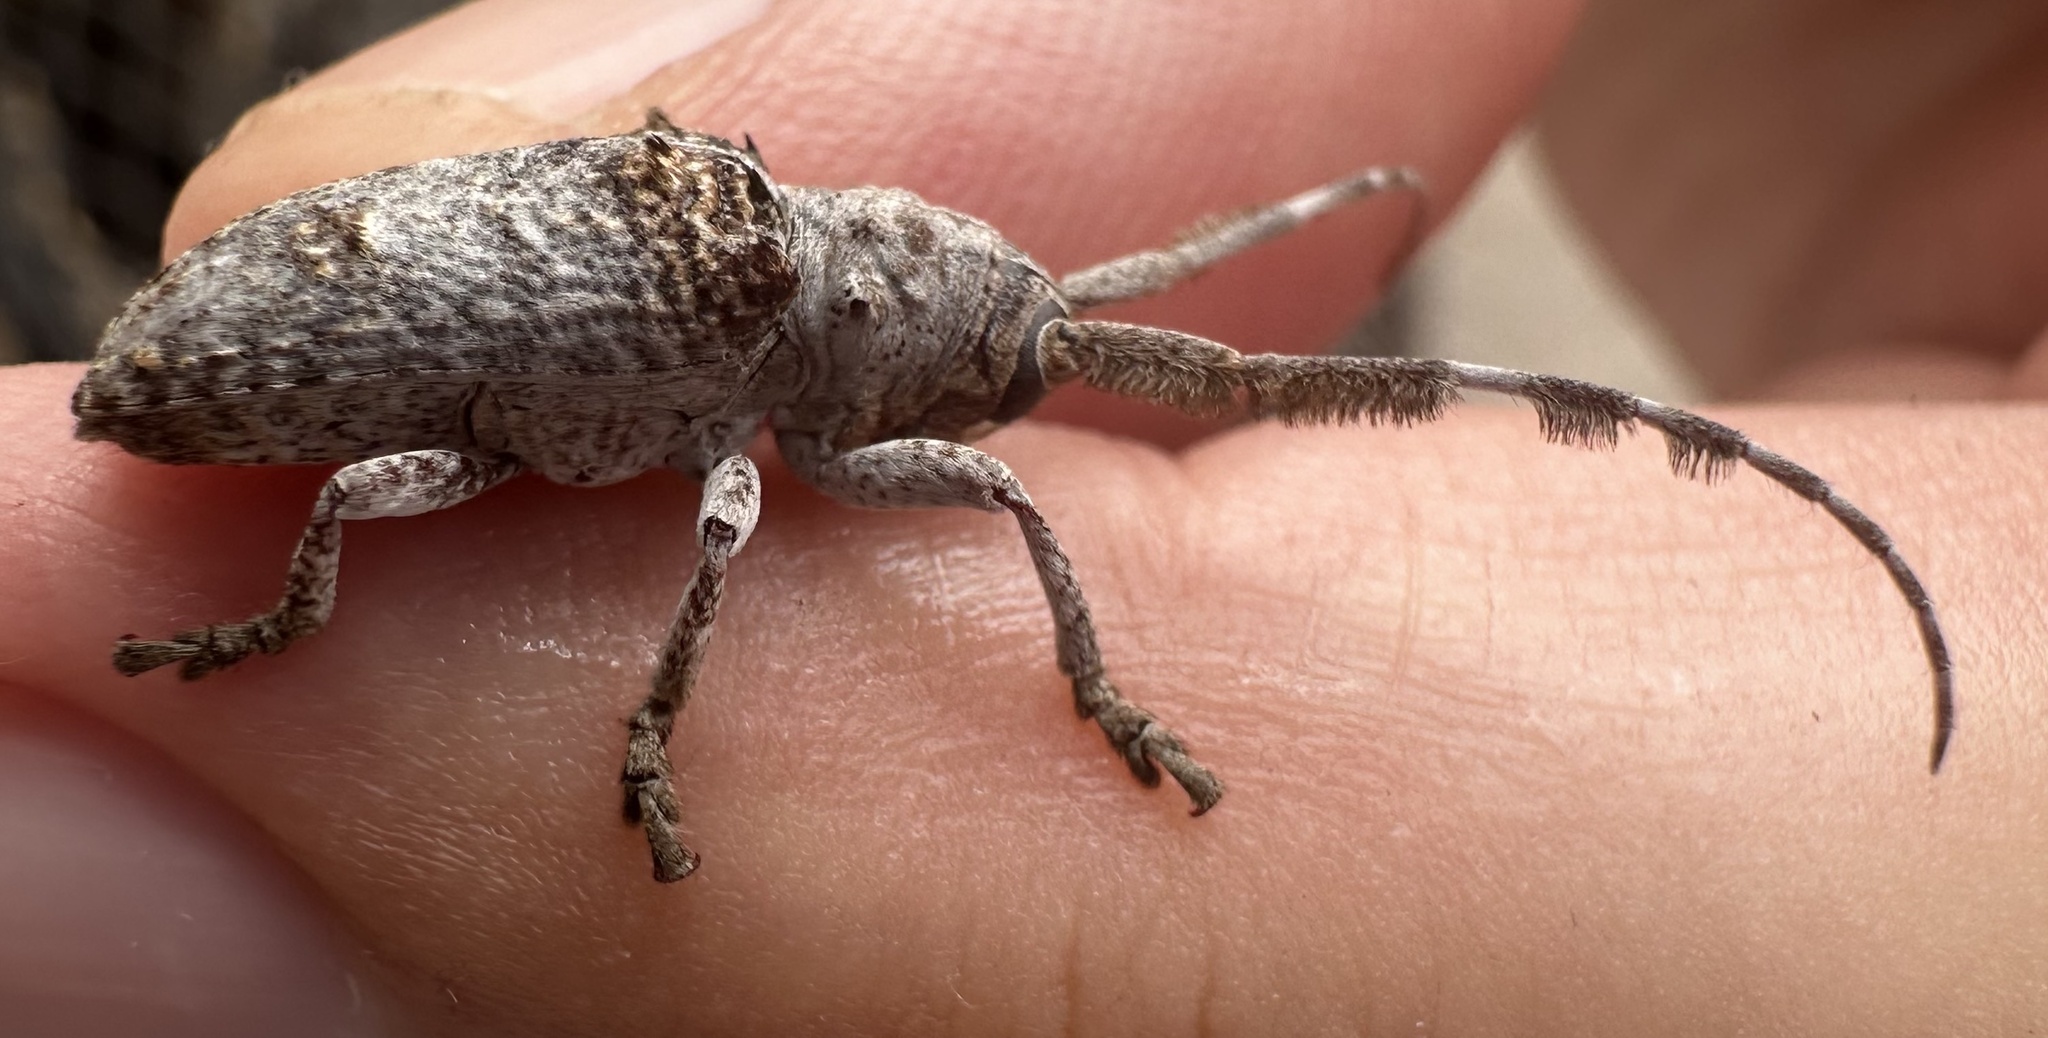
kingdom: Animalia
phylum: Arthropoda
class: Insecta
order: Coleoptera
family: Cerambycidae
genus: Crossotus
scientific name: Crossotus plumicornis
